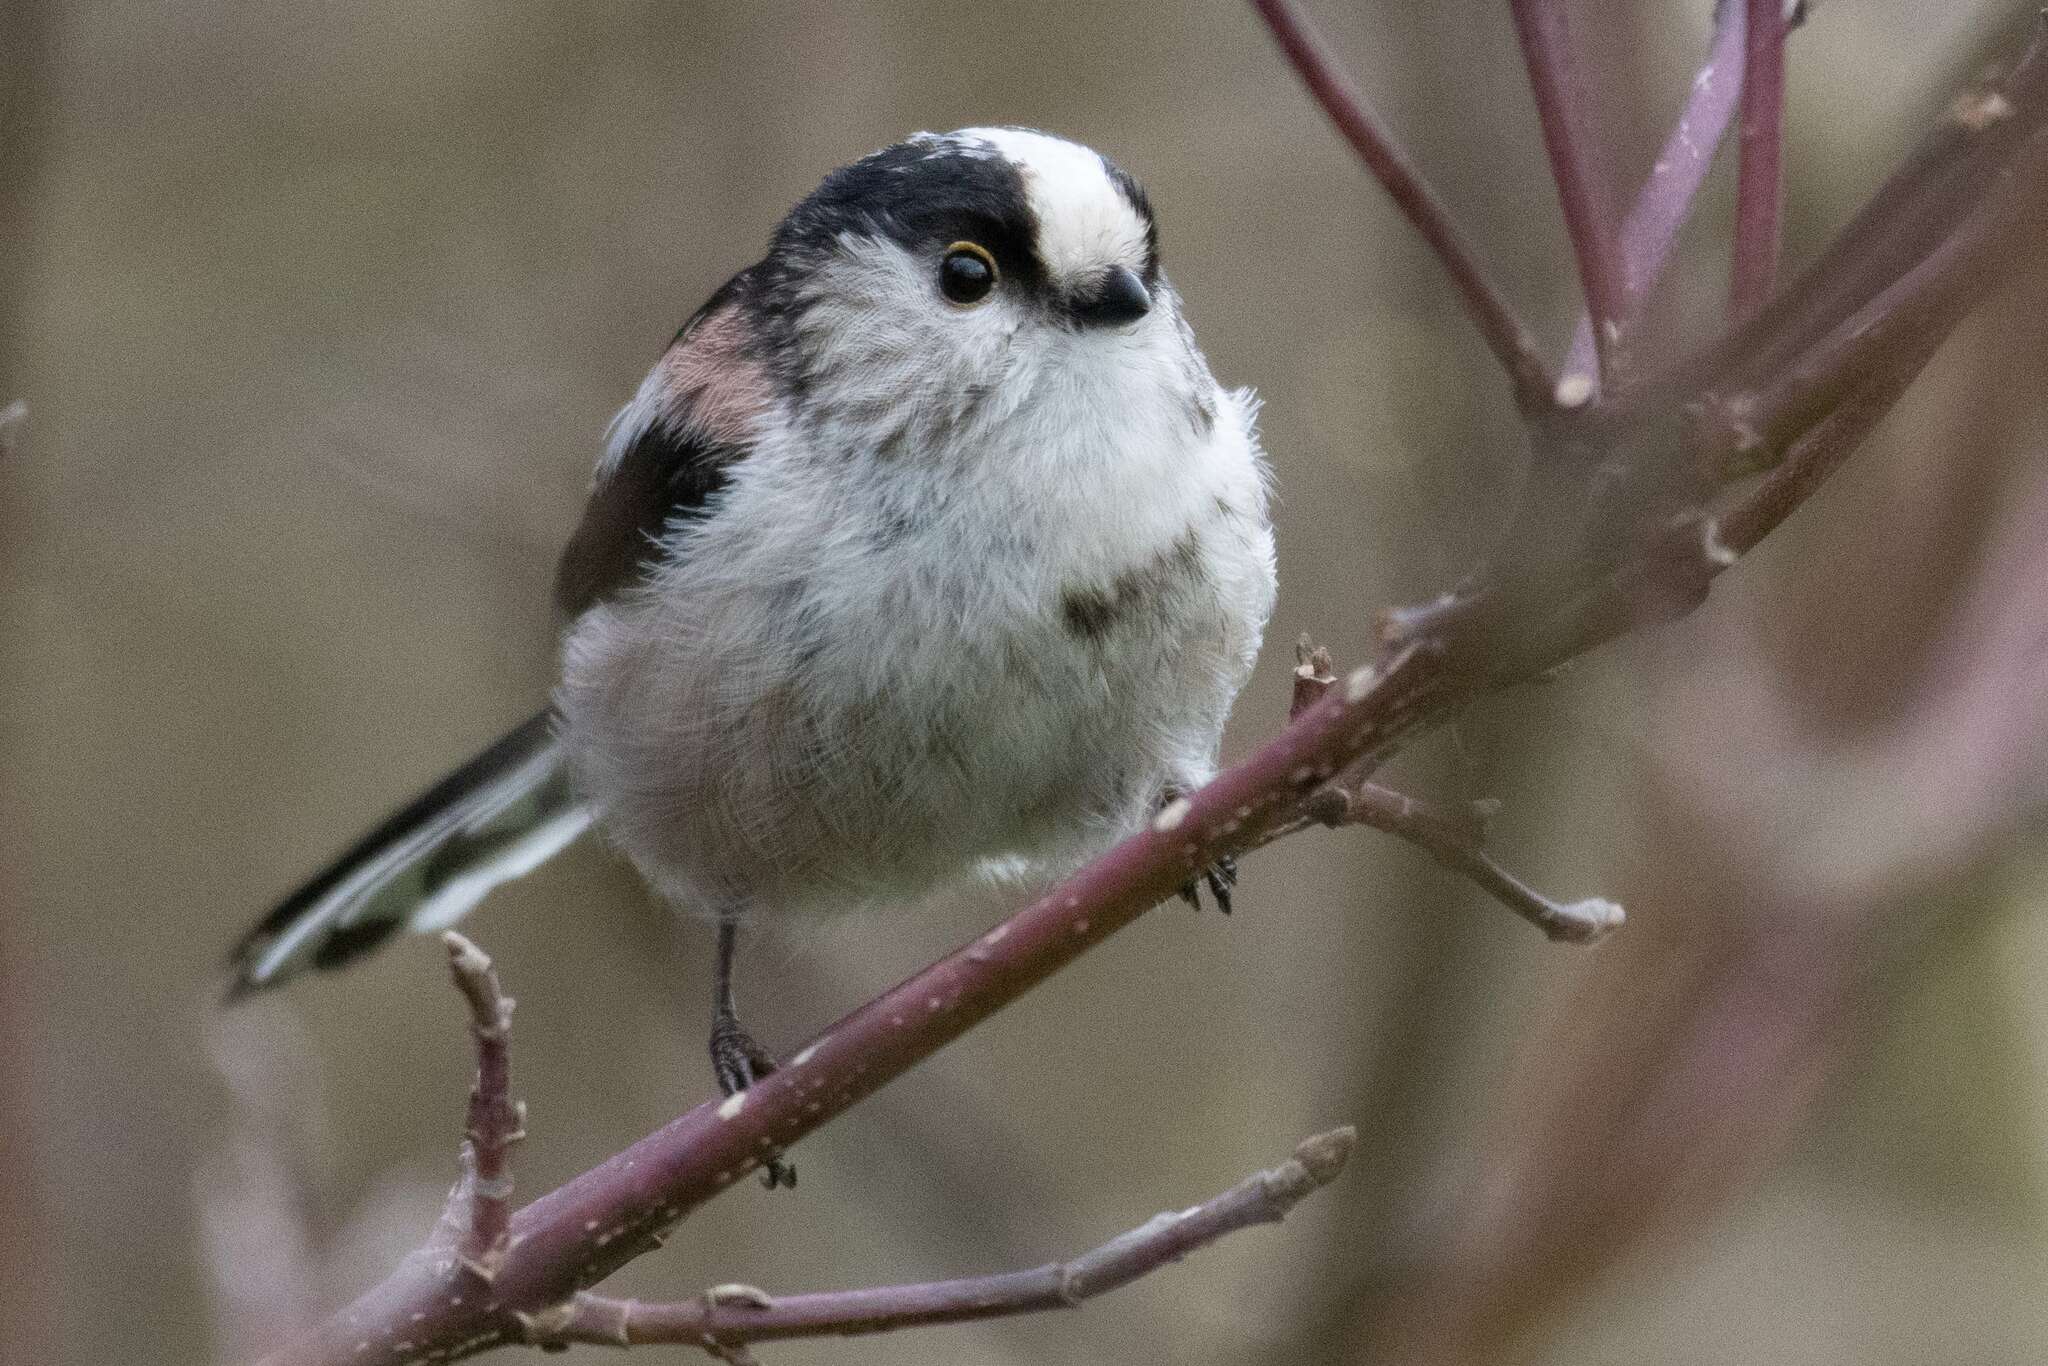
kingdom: Animalia
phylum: Chordata
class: Aves
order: Passeriformes
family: Aegithalidae
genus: Aegithalos
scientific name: Aegithalos caudatus
